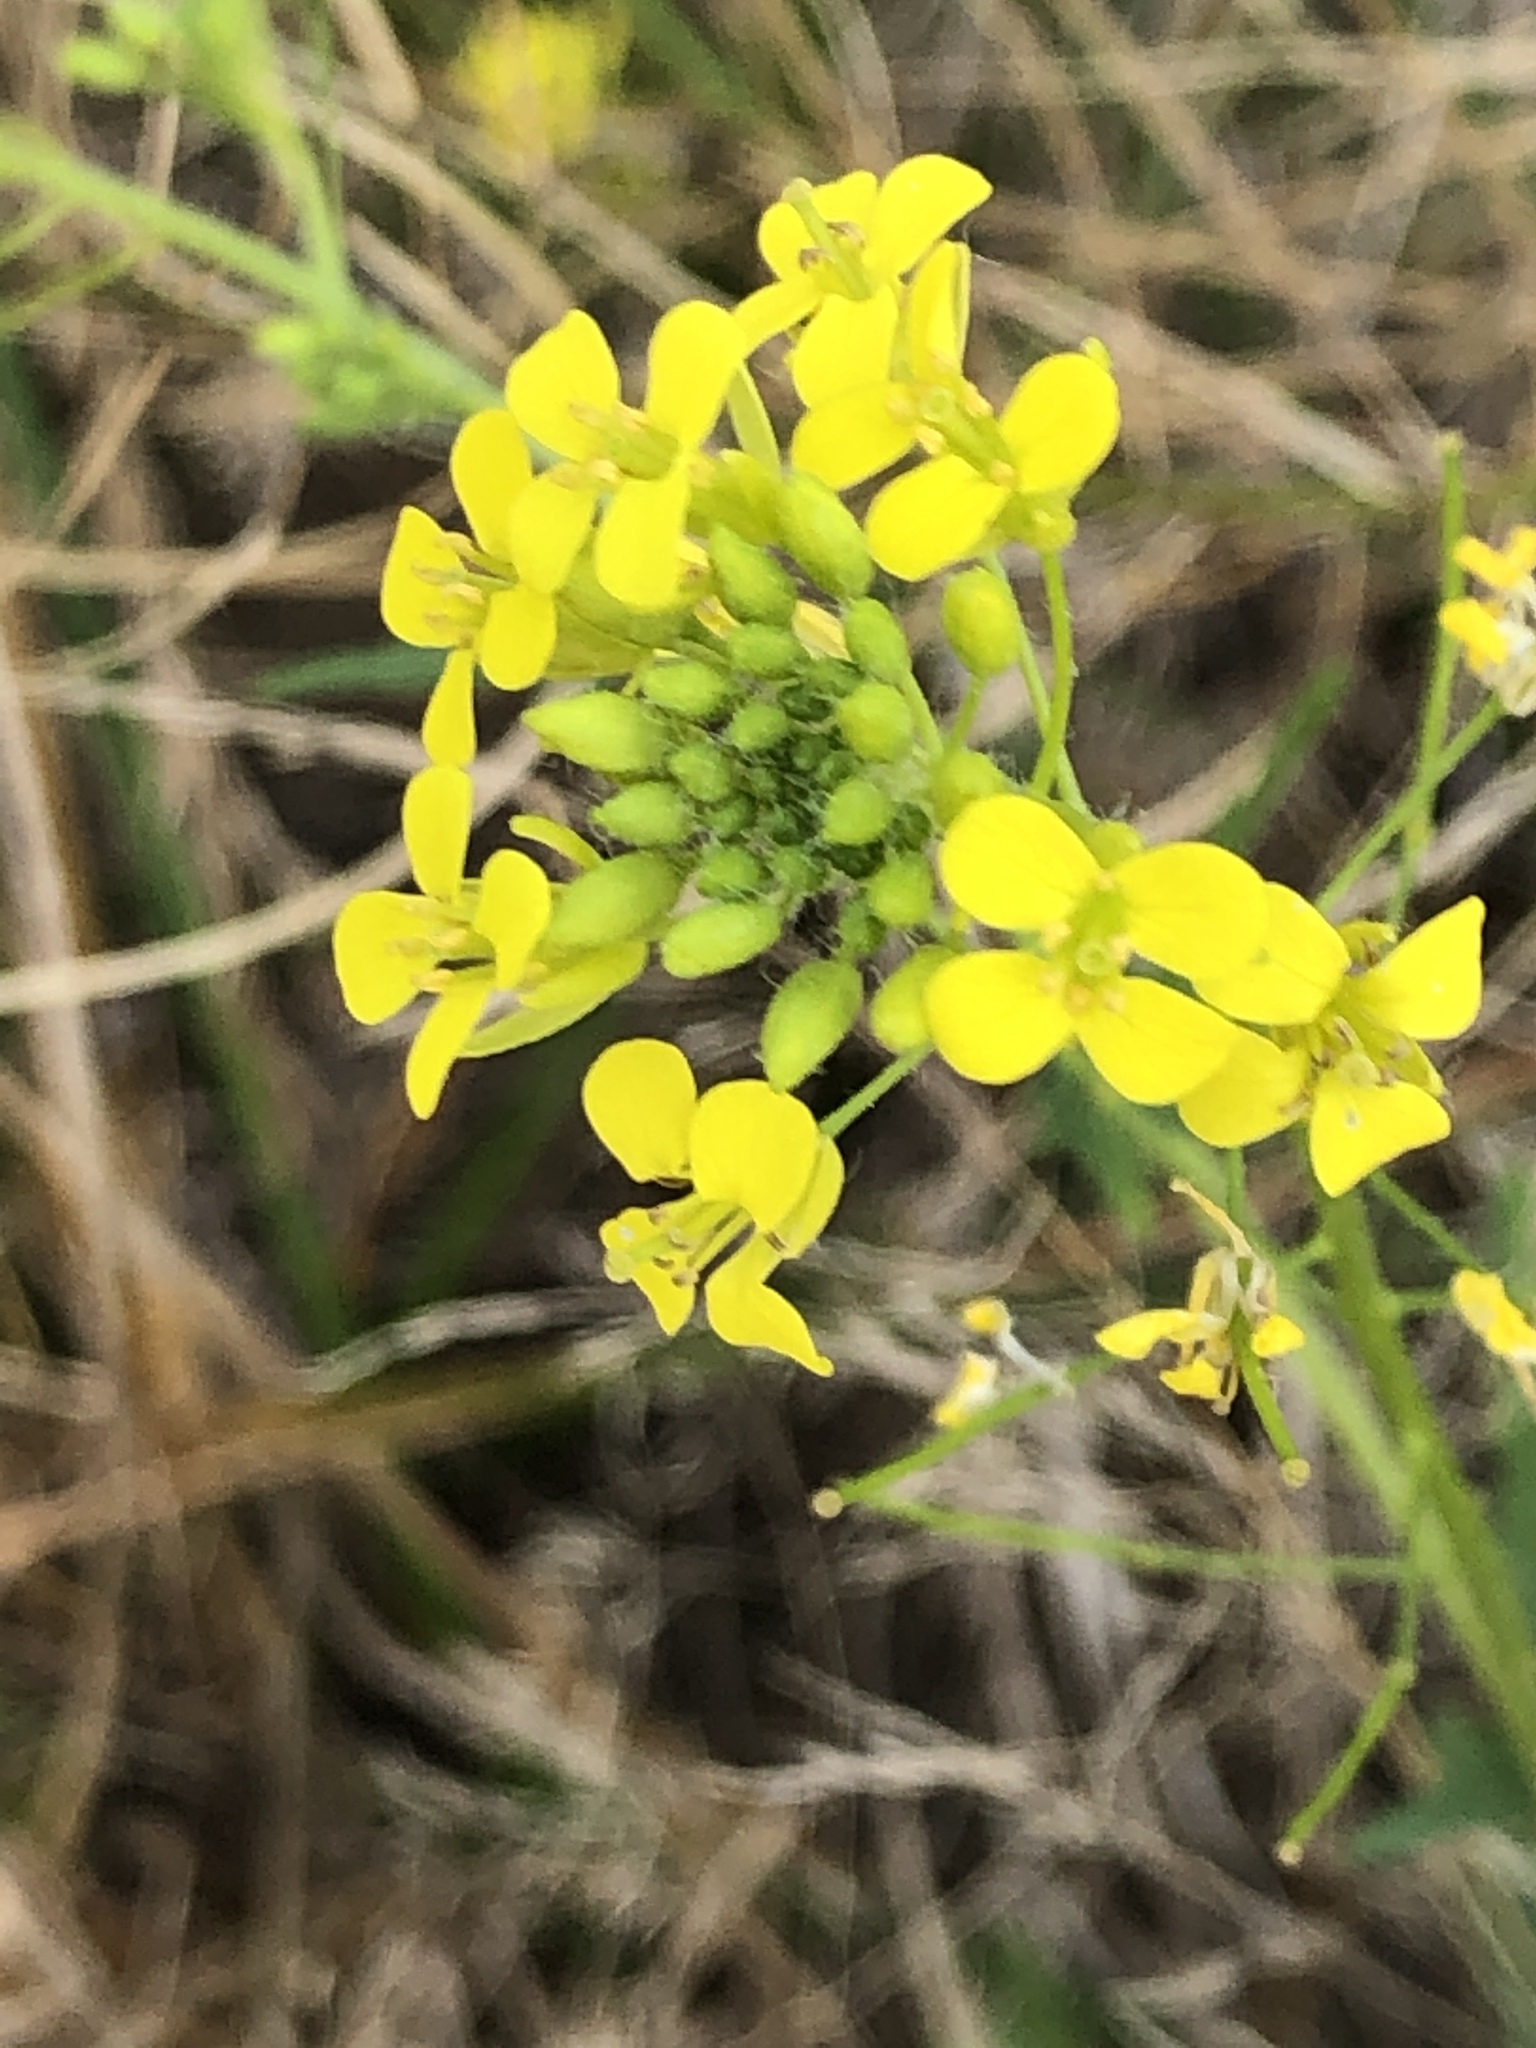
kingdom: Plantae
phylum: Tracheophyta
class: Magnoliopsida
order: Brassicales
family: Brassicaceae
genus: Brassica
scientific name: Brassica rapa
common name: Field mustard
